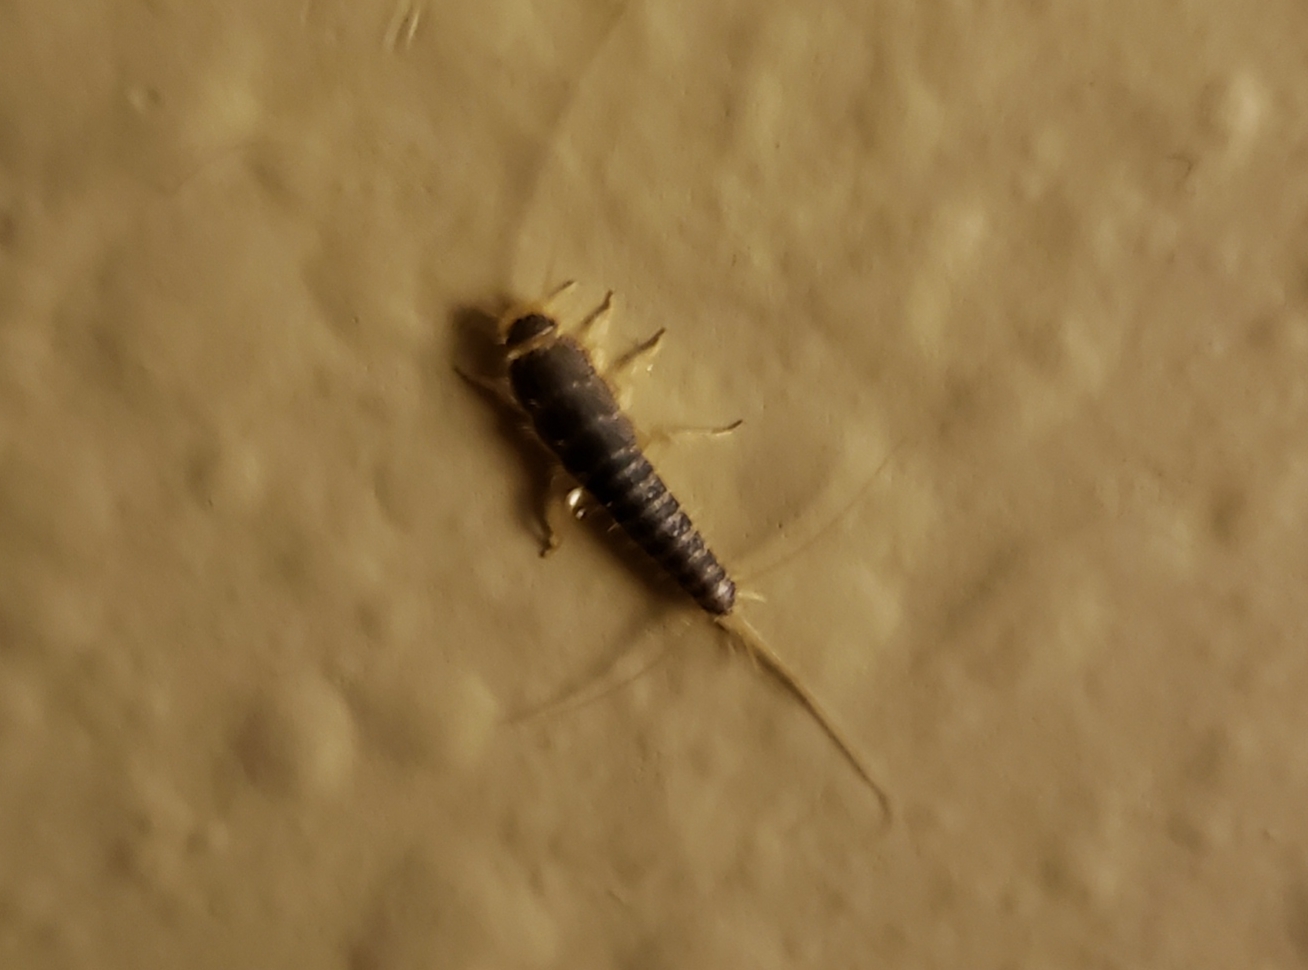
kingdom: Animalia
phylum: Arthropoda
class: Insecta
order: Zygentoma
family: Lepismatidae
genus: Ctenolepisma
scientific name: Ctenolepisma longicaudatum
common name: Silverfish
